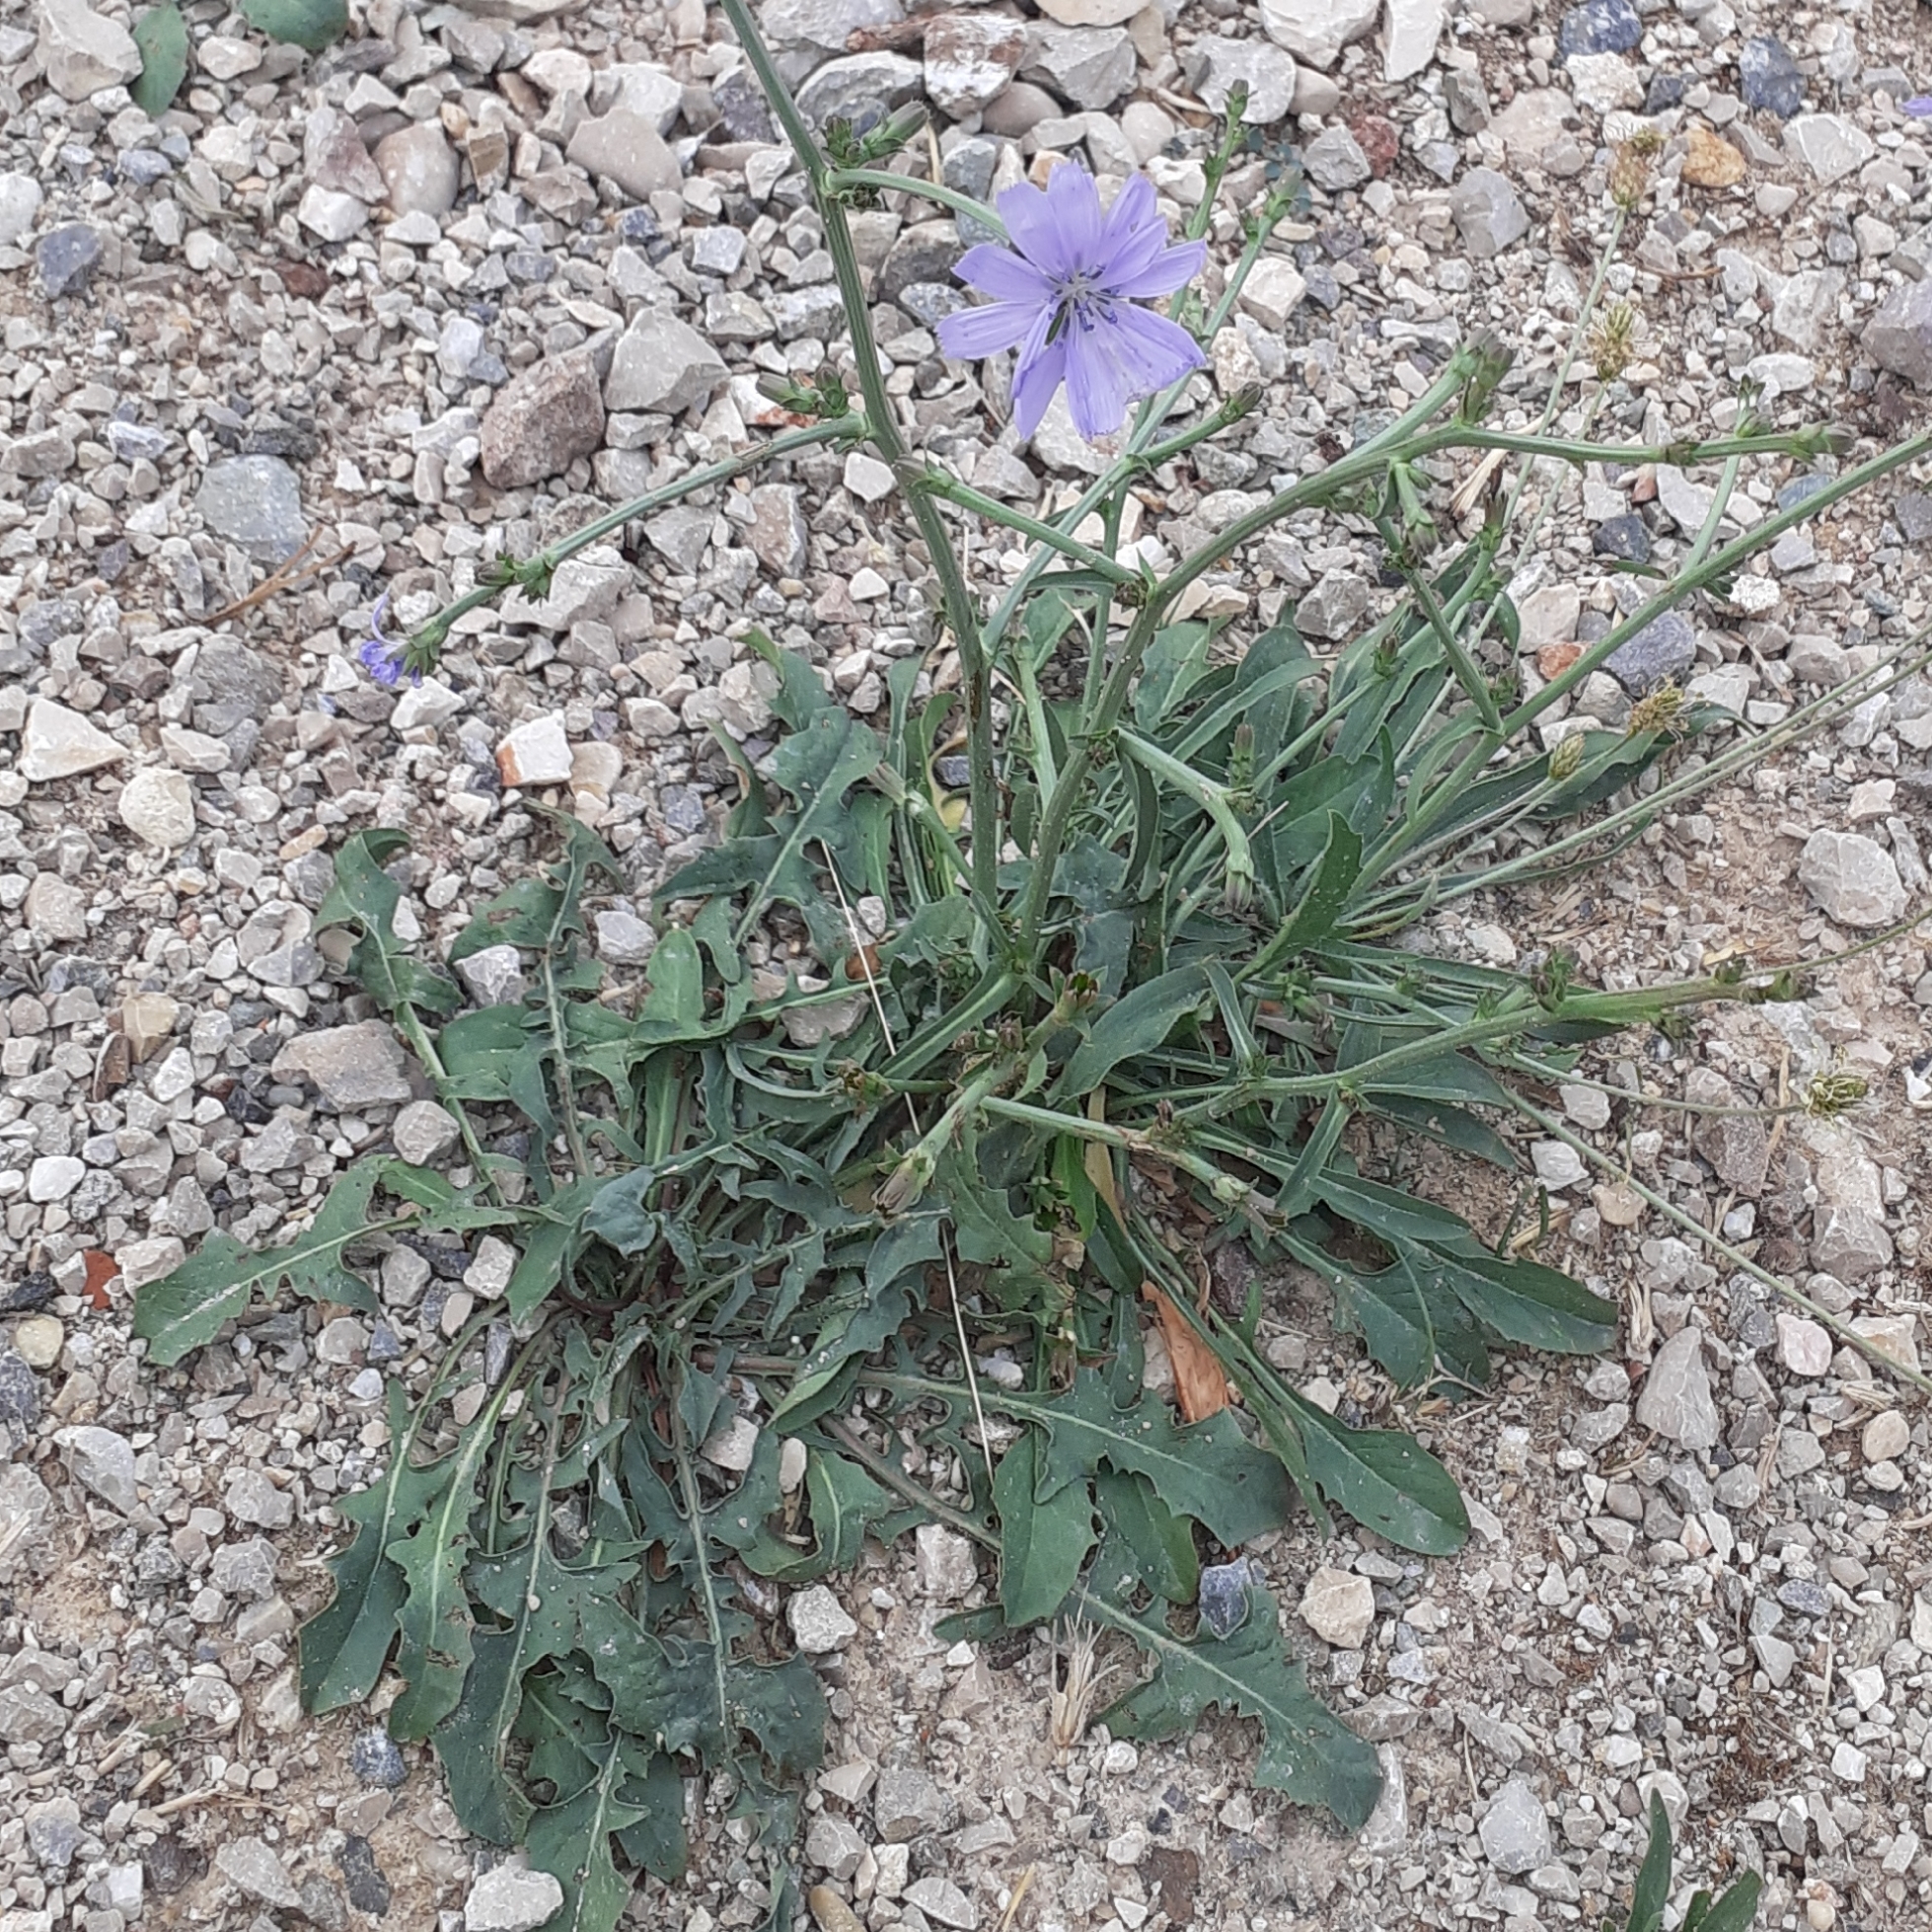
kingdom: Plantae
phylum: Tracheophyta
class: Magnoliopsida
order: Asterales
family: Asteraceae
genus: Cichorium
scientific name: Cichorium intybus
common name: Chicory
